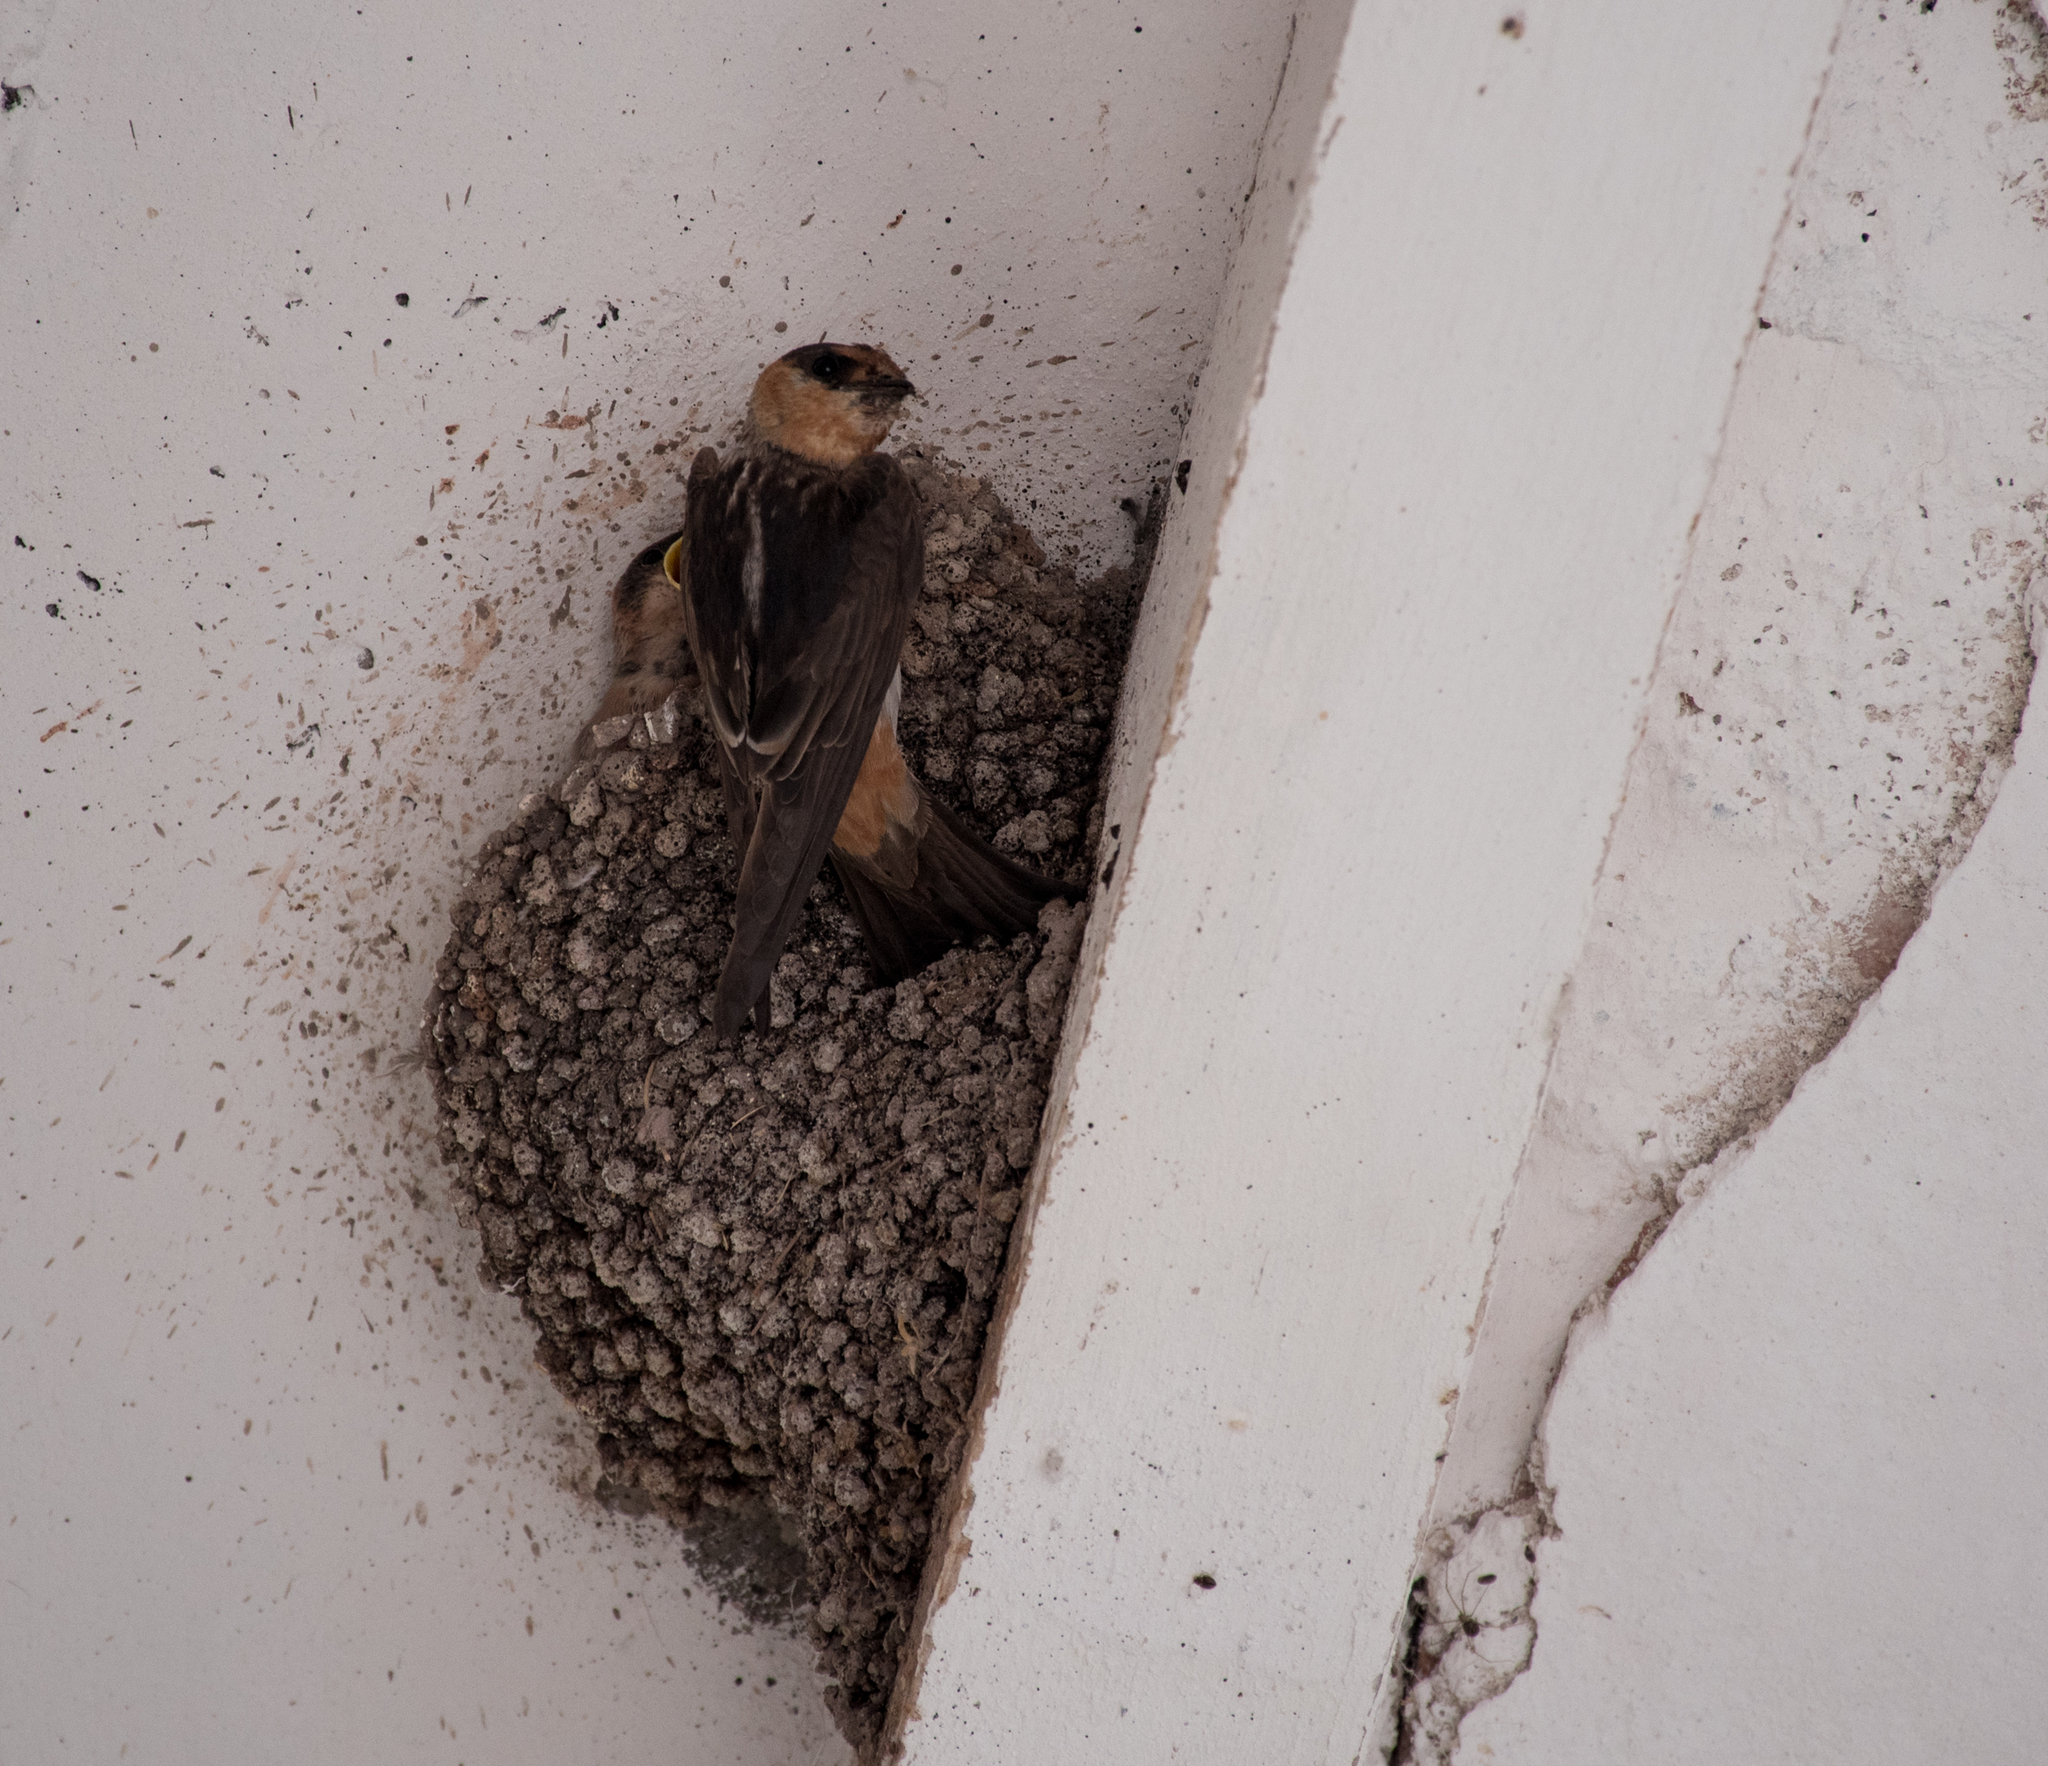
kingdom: Animalia
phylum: Chordata
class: Aves
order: Passeriformes
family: Hirundinidae
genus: Petrochelidon
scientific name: Petrochelidon fulva
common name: Cave swallow
